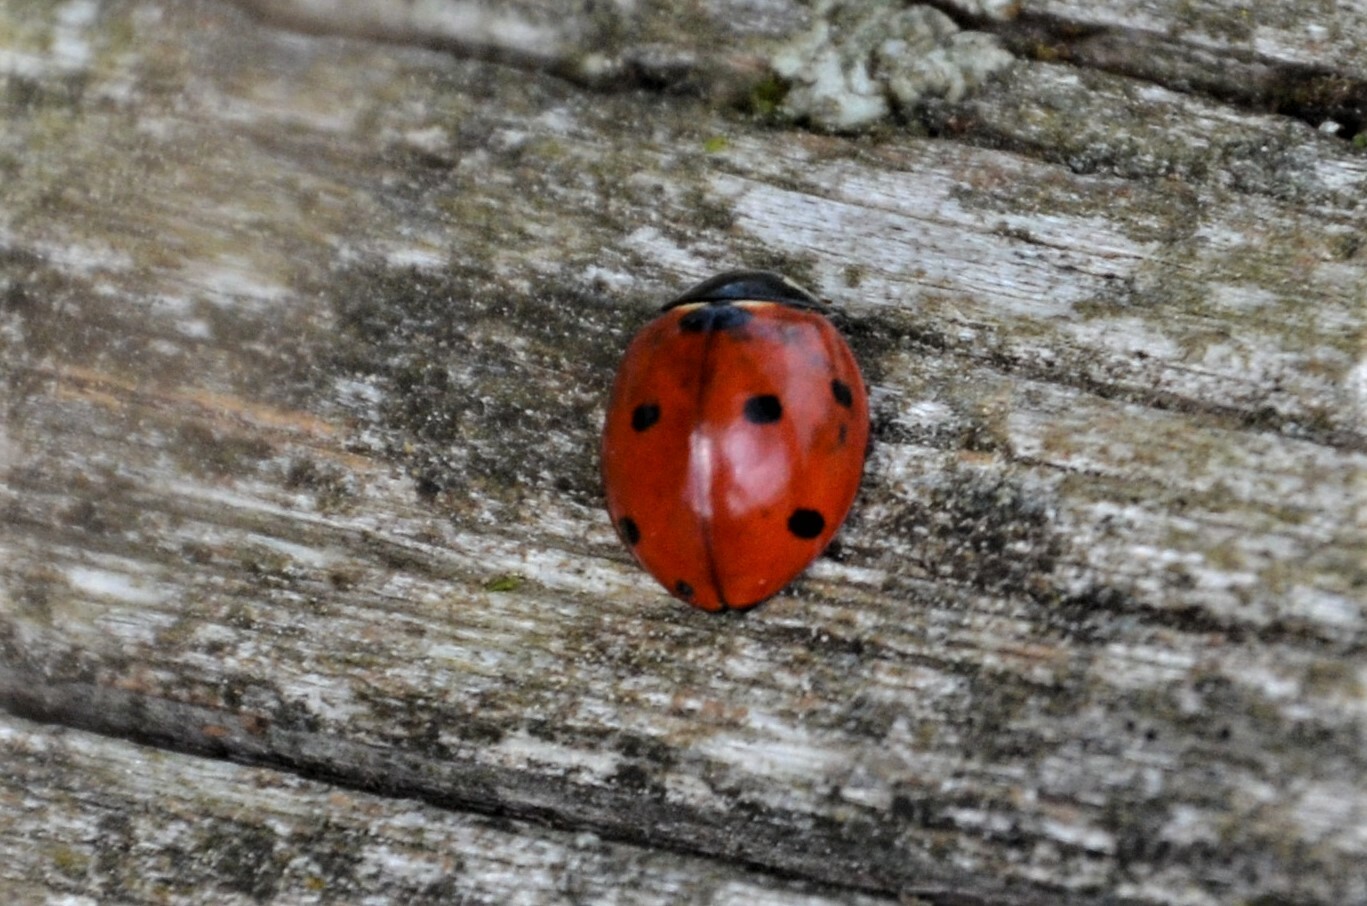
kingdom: Animalia
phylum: Arthropoda
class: Insecta
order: Coleoptera
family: Coccinellidae
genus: Coccinella
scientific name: Coccinella septempunctata
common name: Sevenspotted lady beetle
